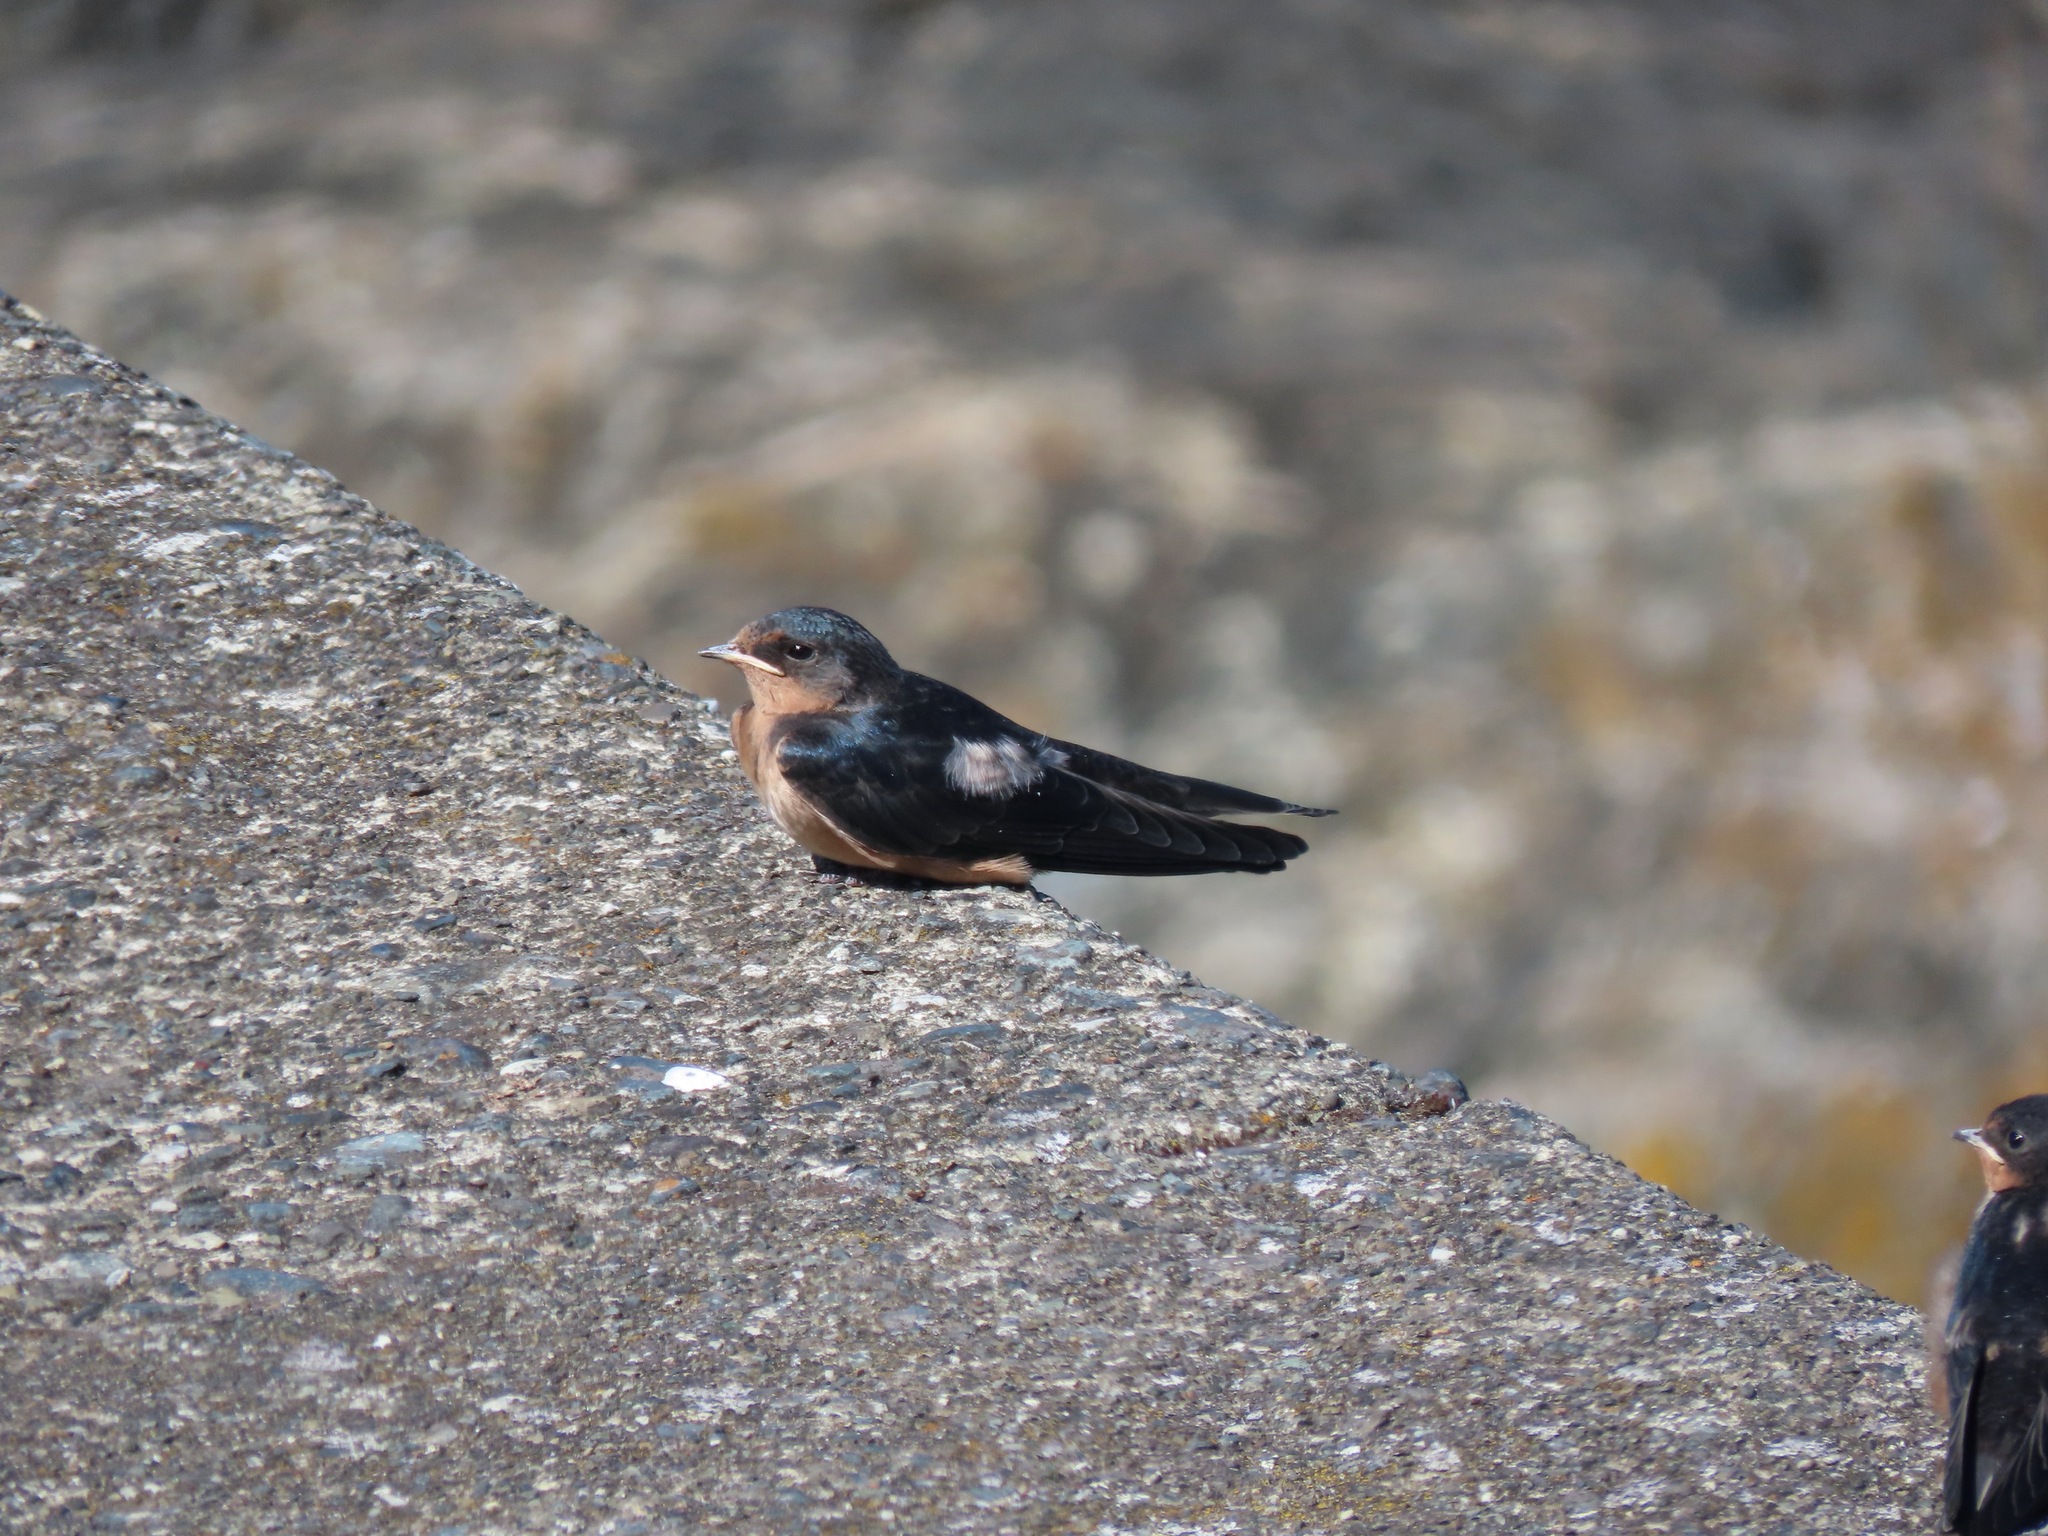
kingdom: Animalia
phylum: Chordata
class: Aves
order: Passeriformes
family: Hirundinidae
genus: Hirundo
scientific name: Hirundo rustica
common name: Barn swallow
